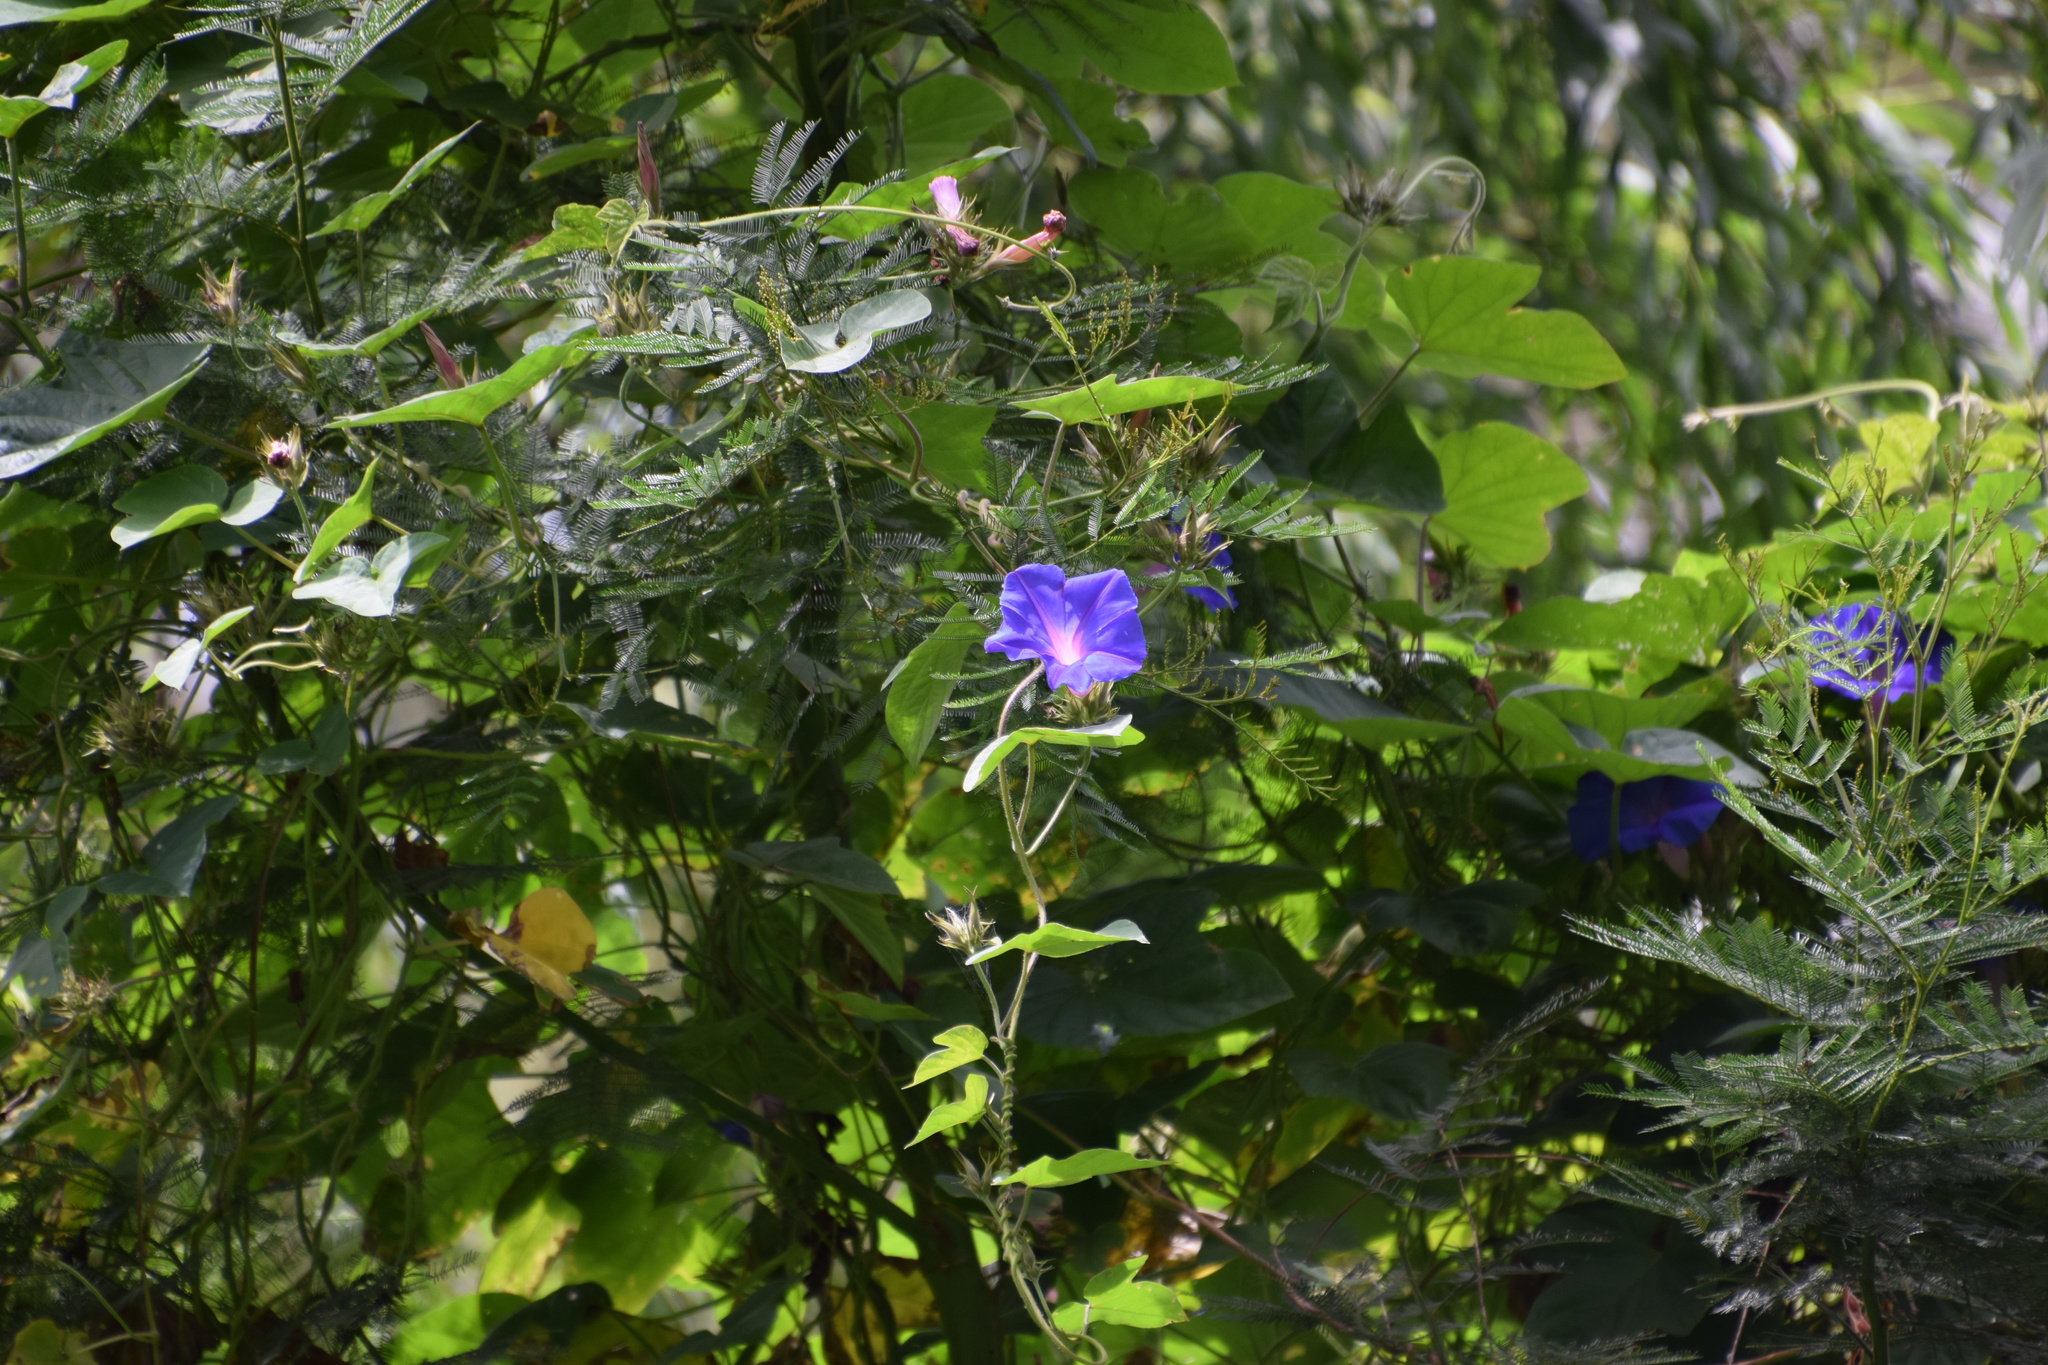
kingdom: Plantae
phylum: Tracheophyta
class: Magnoliopsida
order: Solanales
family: Convolvulaceae
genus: Ipomoea
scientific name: Ipomoea indica
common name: Blue dawnflower
